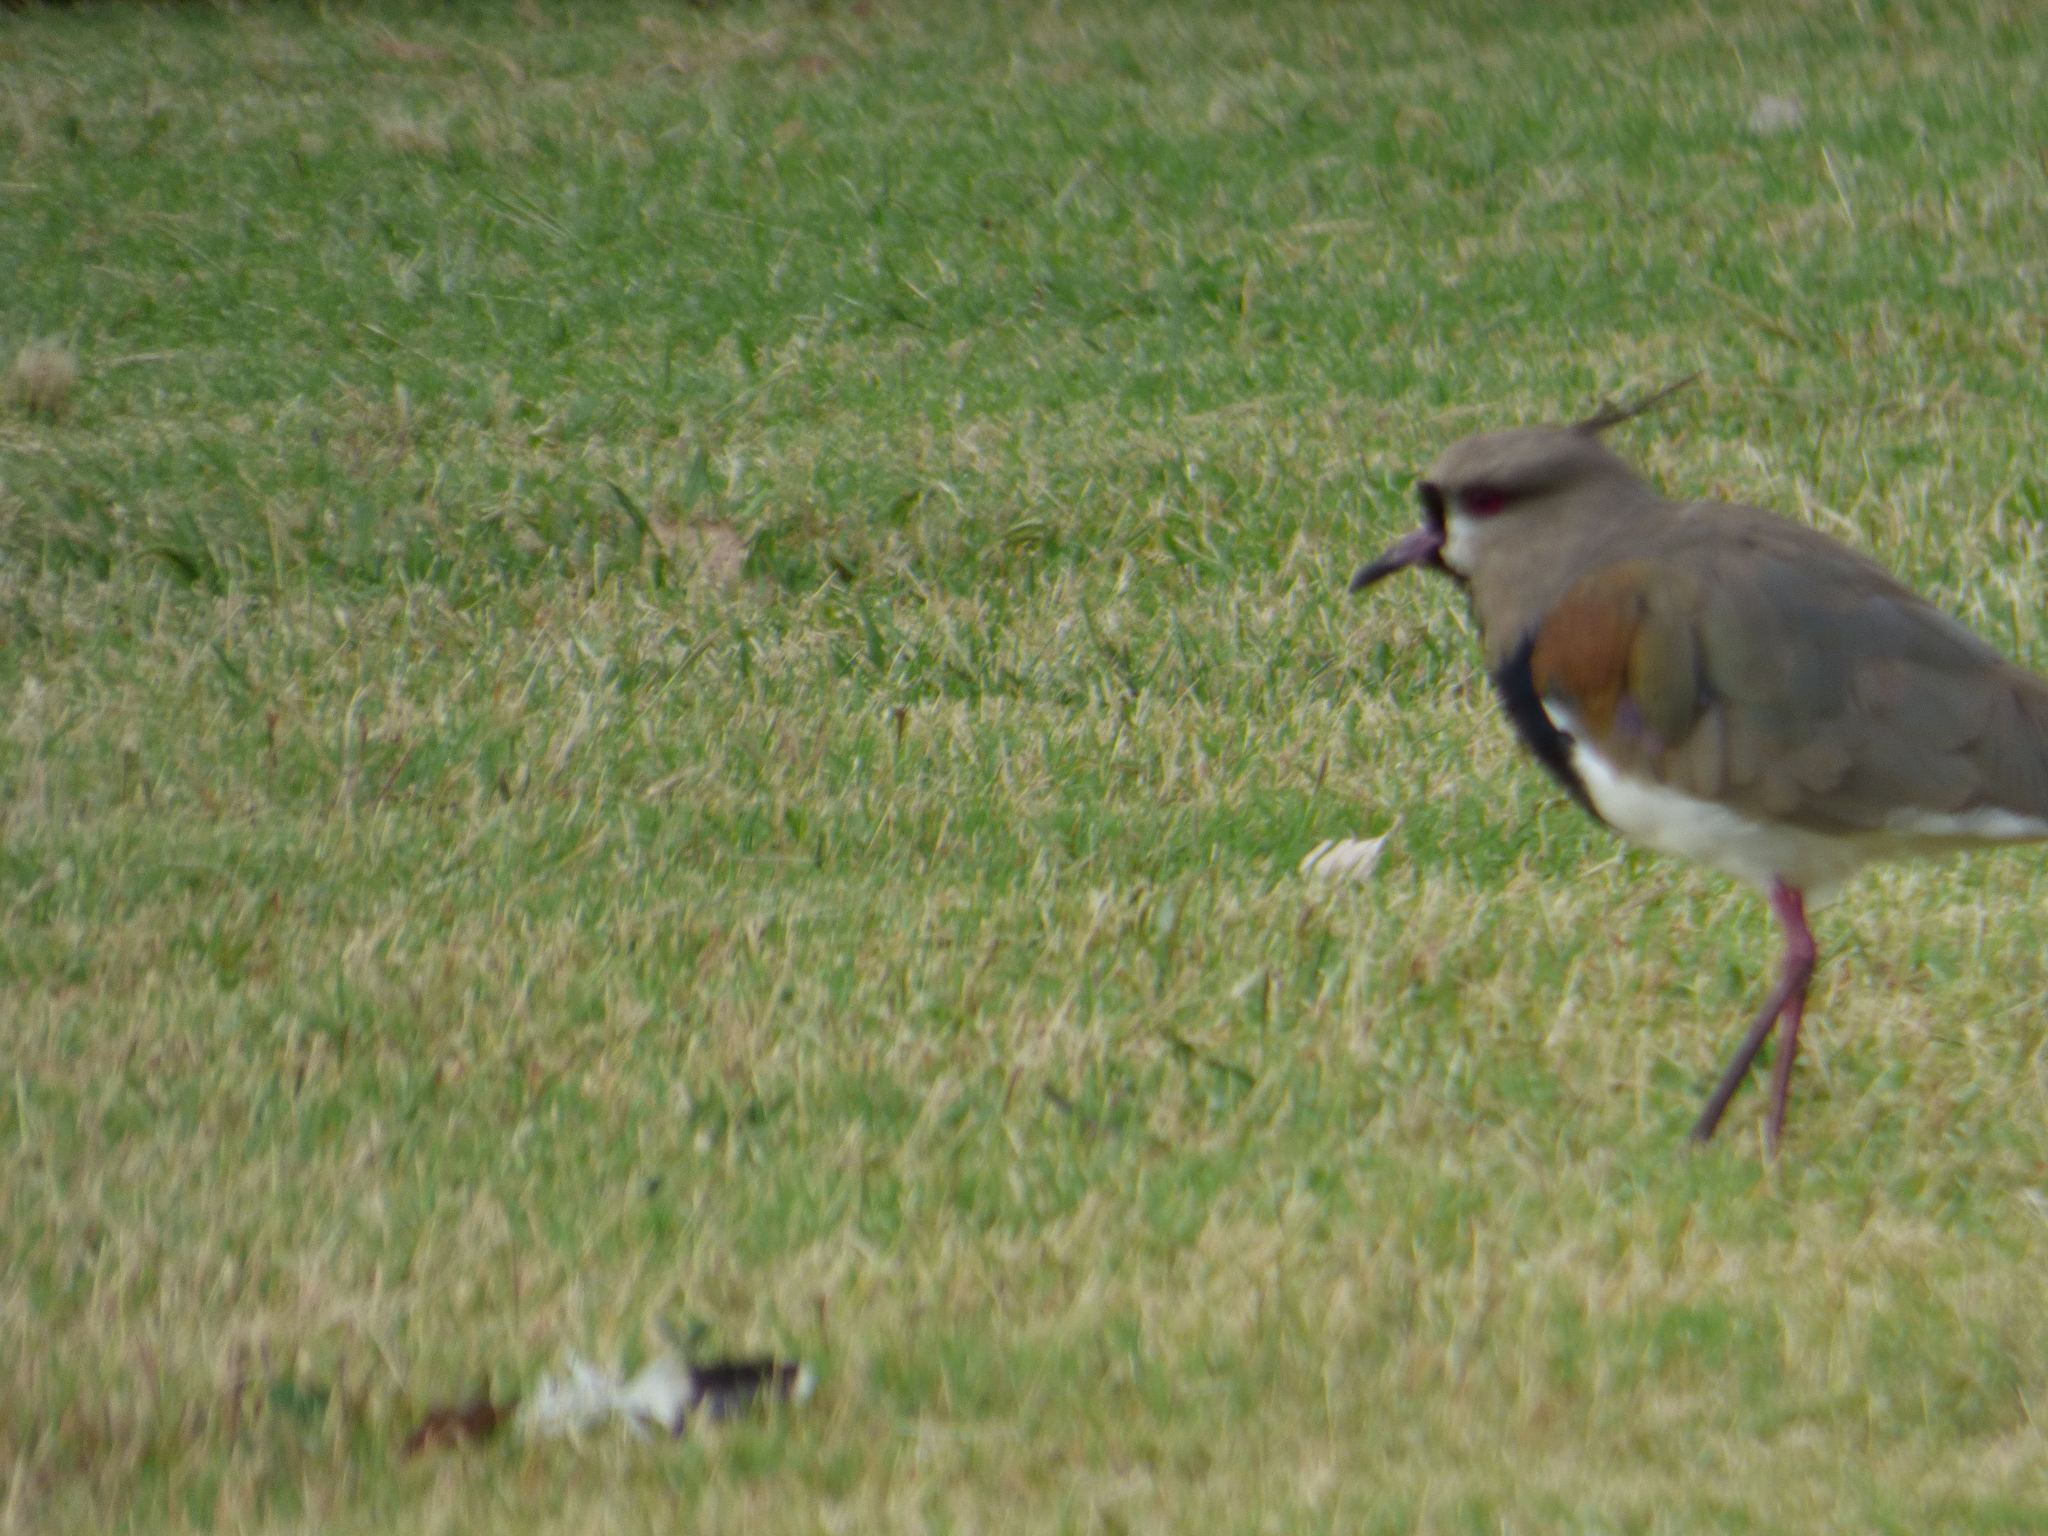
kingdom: Animalia
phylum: Chordata
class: Aves
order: Charadriiformes
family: Charadriidae
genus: Vanellus
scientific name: Vanellus chilensis
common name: Southern lapwing
